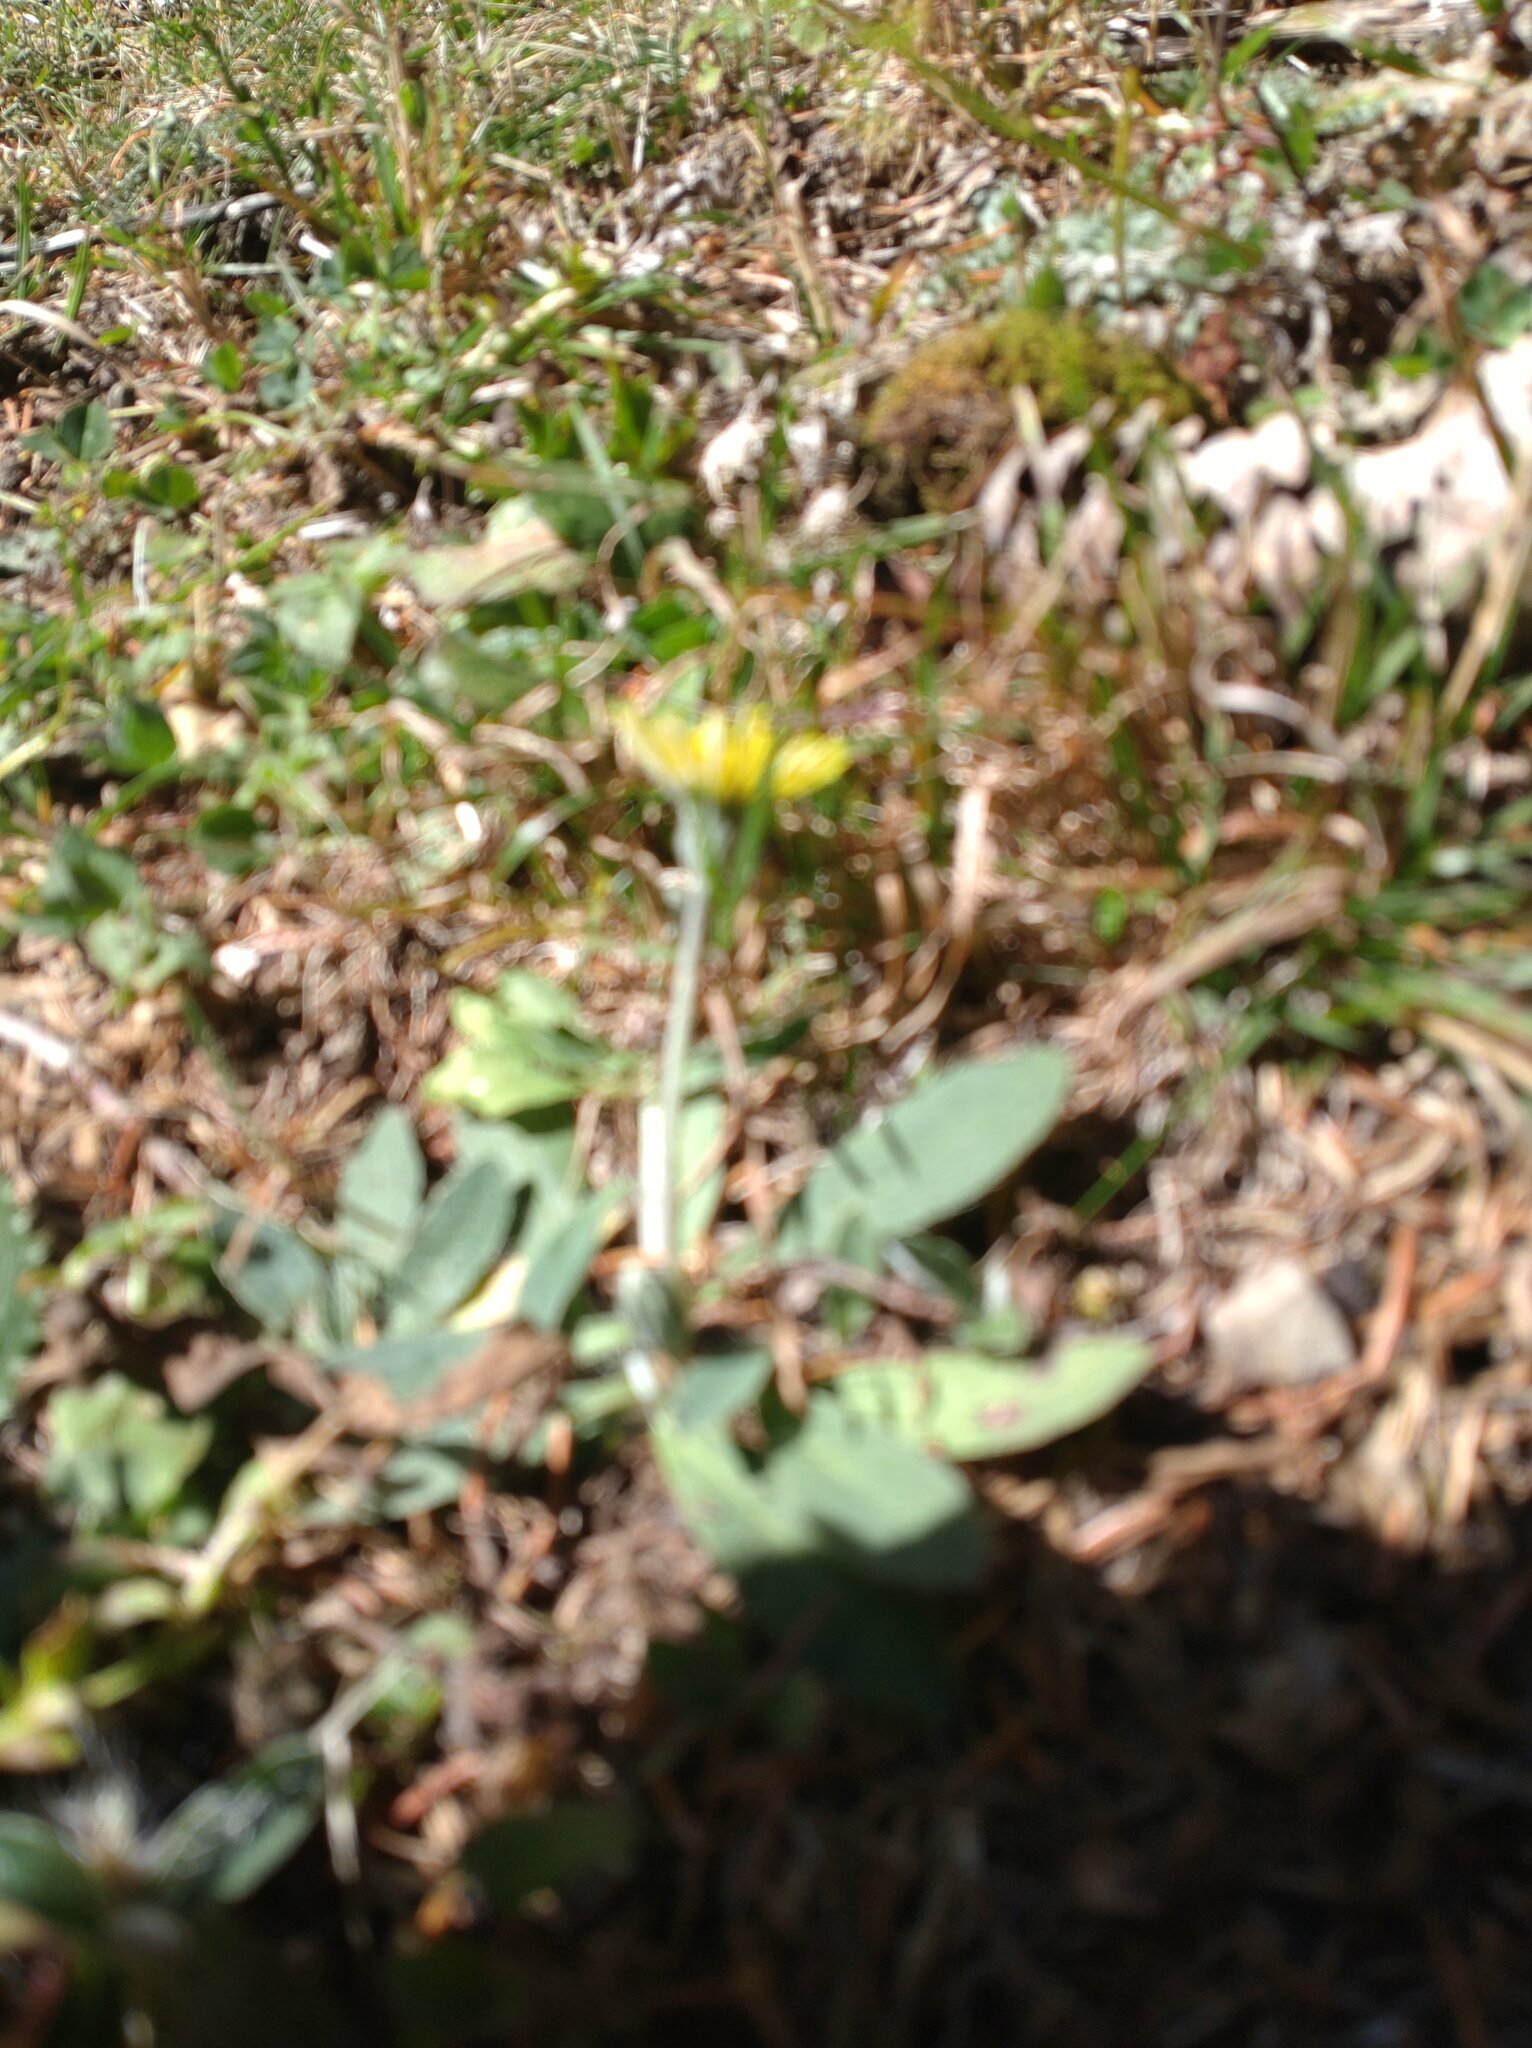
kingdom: Plantae
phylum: Tracheophyta
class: Magnoliopsida
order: Asterales
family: Asteraceae
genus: Pilosella
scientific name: Pilosella officinarum
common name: Mouse-ear hawkweed
